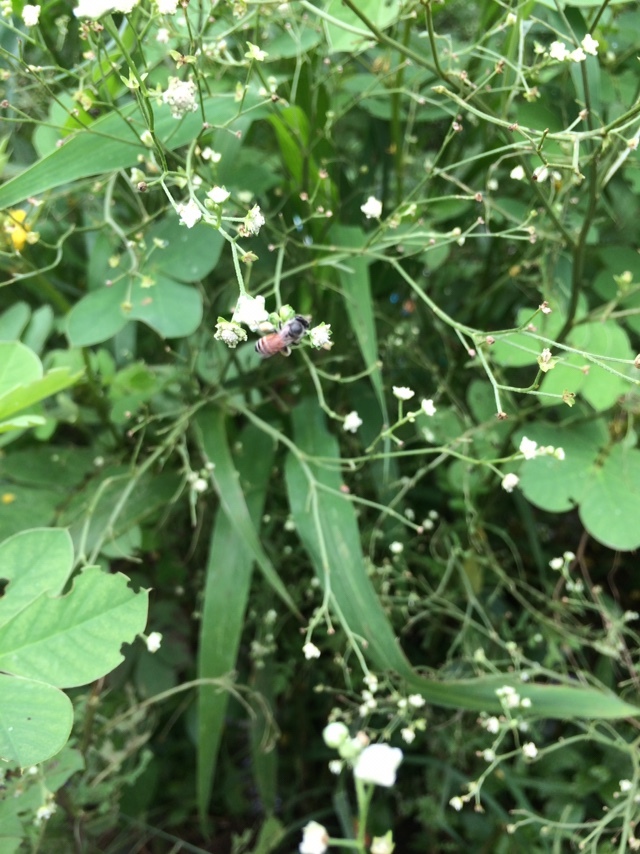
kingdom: Animalia
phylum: Arthropoda
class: Insecta
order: Hymenoptera
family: Apidae
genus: Apis
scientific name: Apis florea
